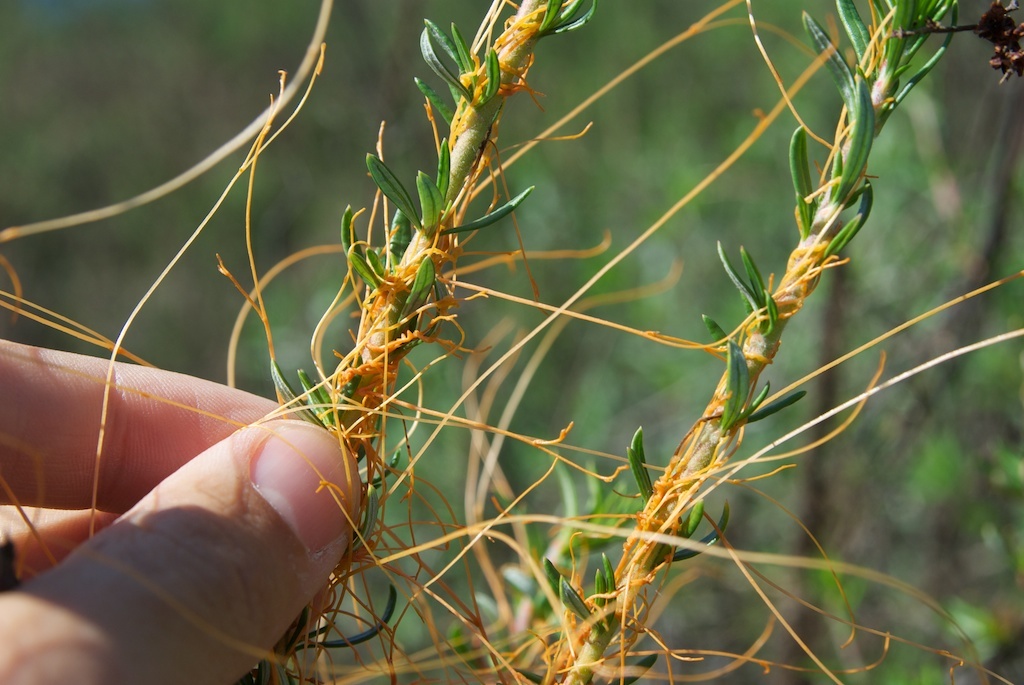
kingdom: Plantae
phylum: Tracheophyta
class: Magnoliopsida
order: Solanales
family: Convolvulaceae
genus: Cuscuta
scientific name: Cuscuta californica
